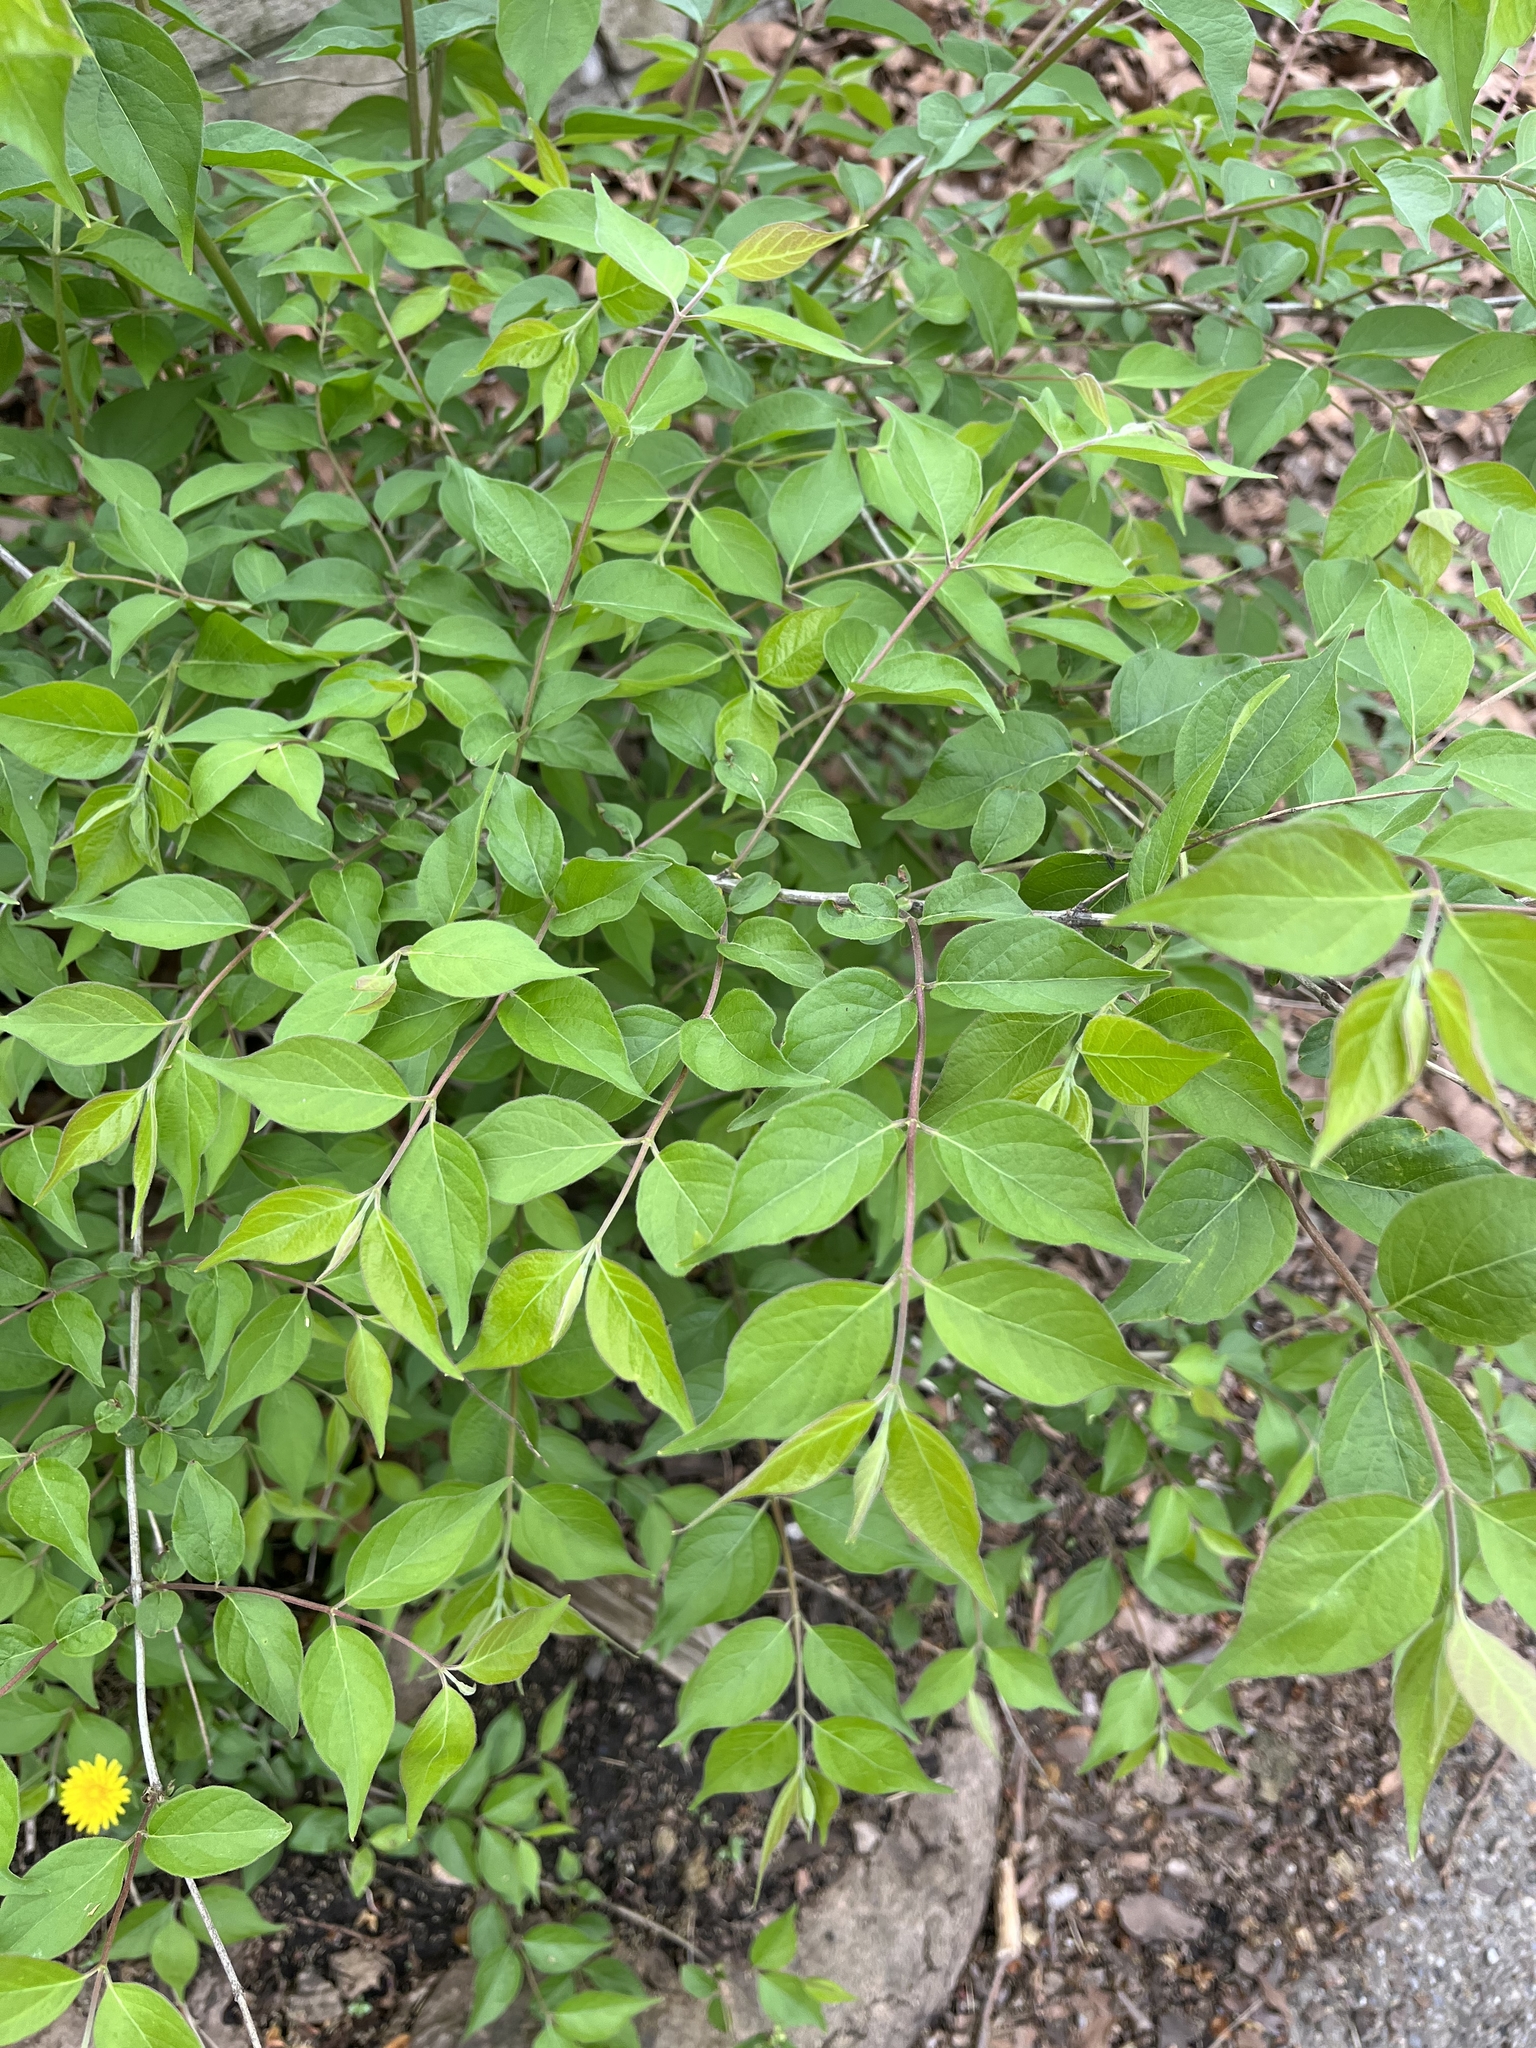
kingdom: Plantae
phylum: Tracheophyta
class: Magnoliopsida
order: Dipsacales
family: Caprifoliaceae
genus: Lonicera
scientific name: Lonicera maackii
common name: Amur honeysuckle
